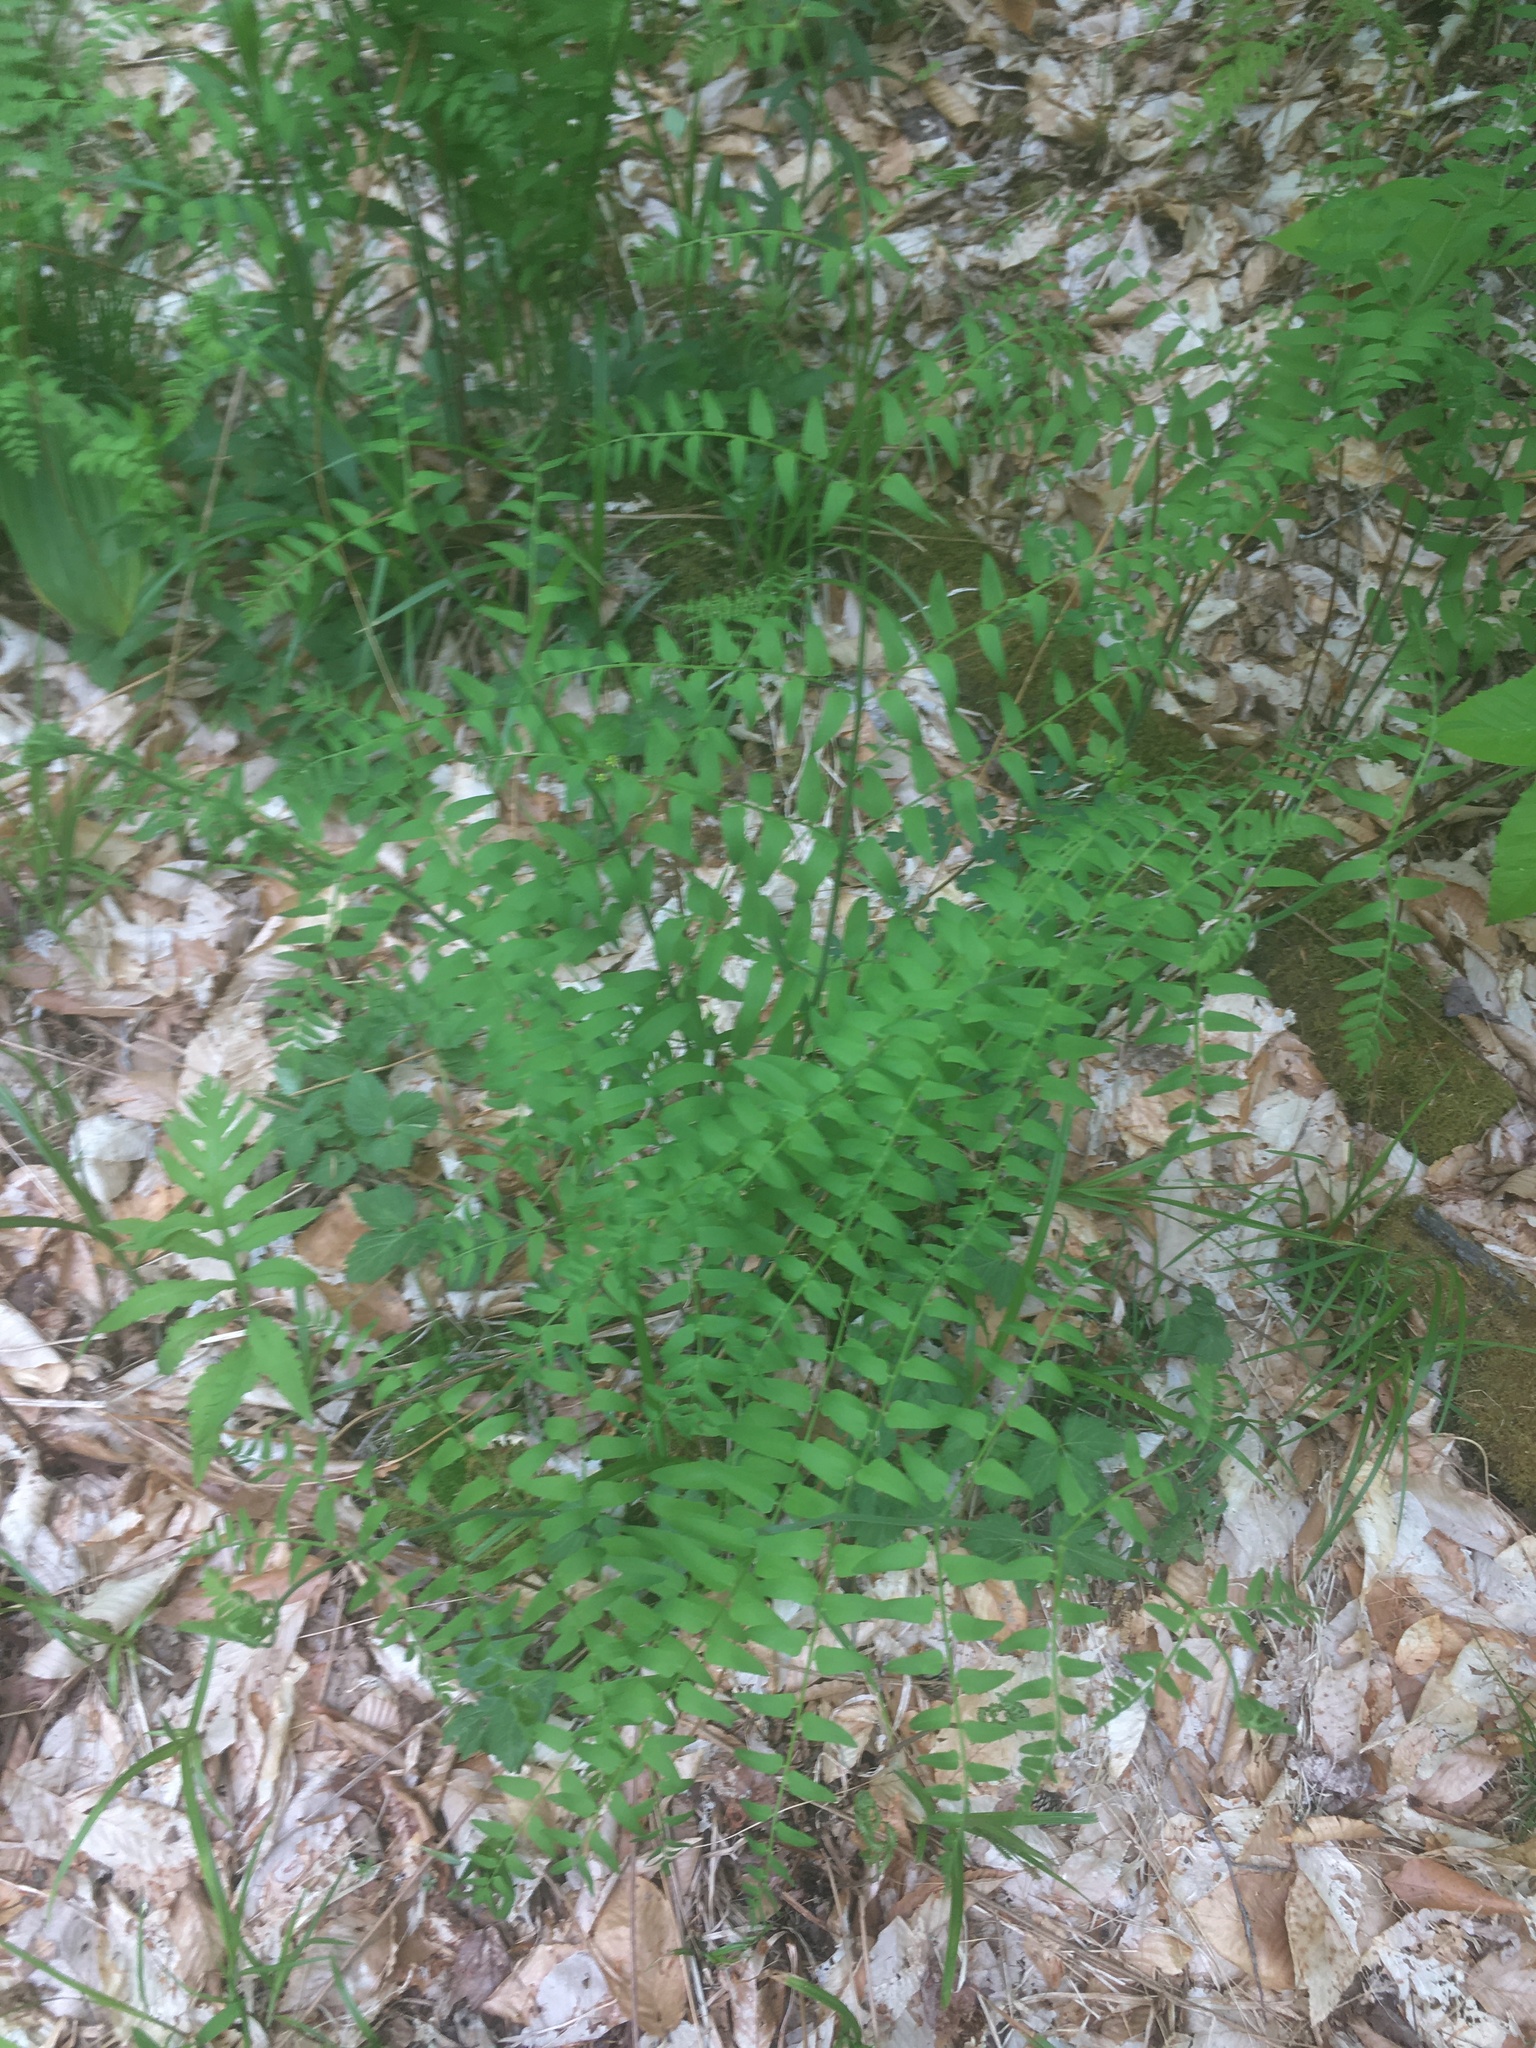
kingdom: Plantae
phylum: Tracheophyta
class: Polypodiopsida
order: Osmundales
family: Osmundaceae
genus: Osmunda
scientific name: Osmunda spectabilis
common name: American royal fern
